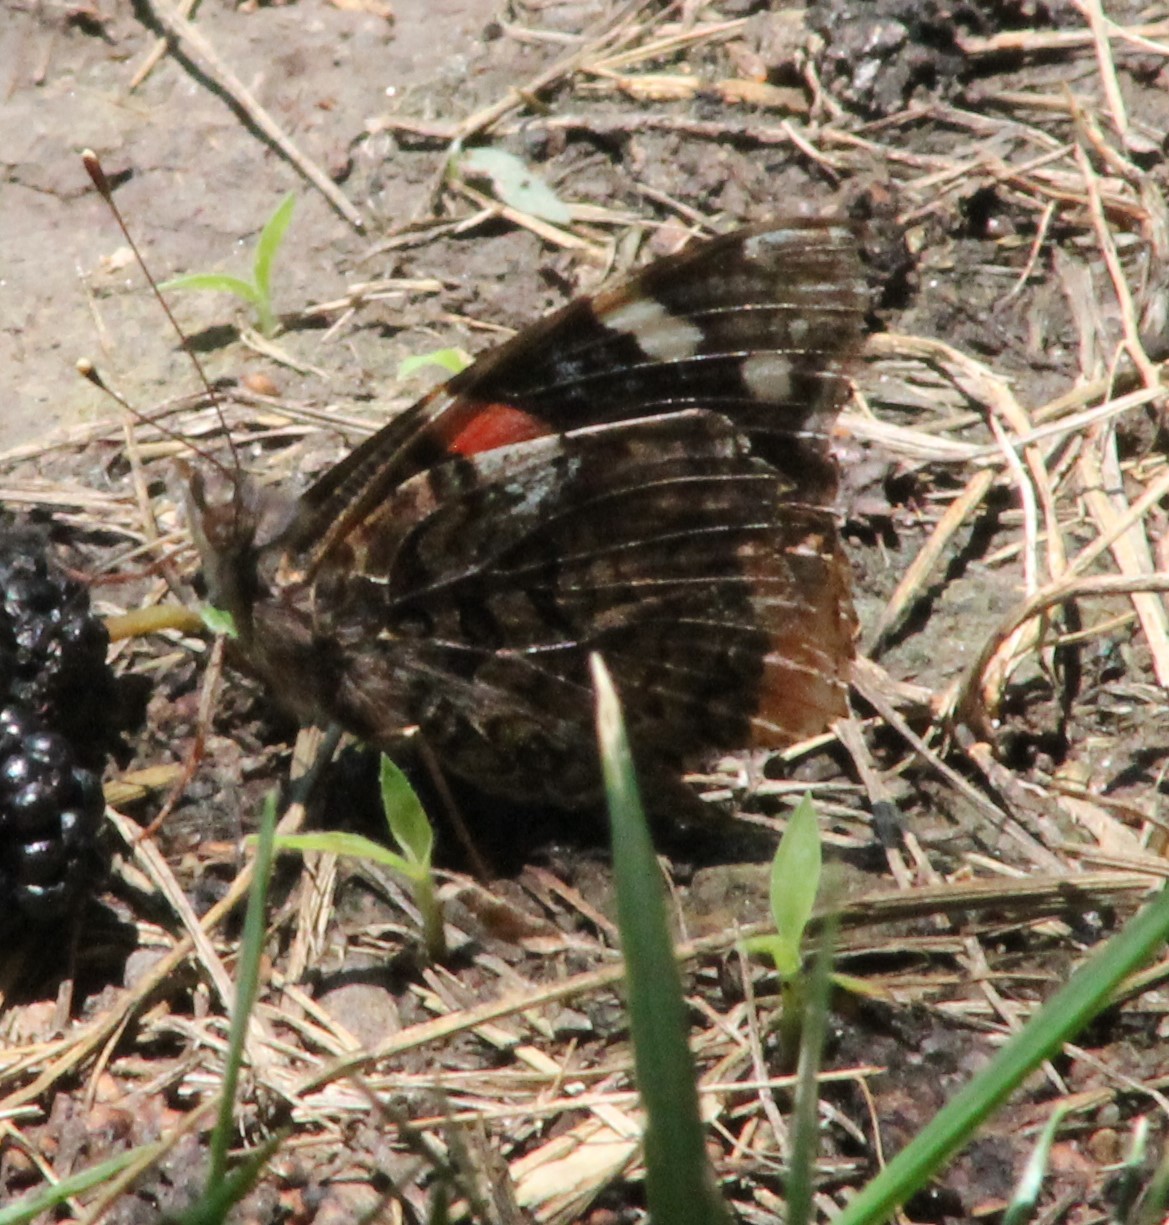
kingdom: Animalia
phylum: Arthropoda
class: Insecta
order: Lepidoptera
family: Nymphalidae
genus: Vanessa
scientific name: Vanessa atalanta
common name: Red admiral
